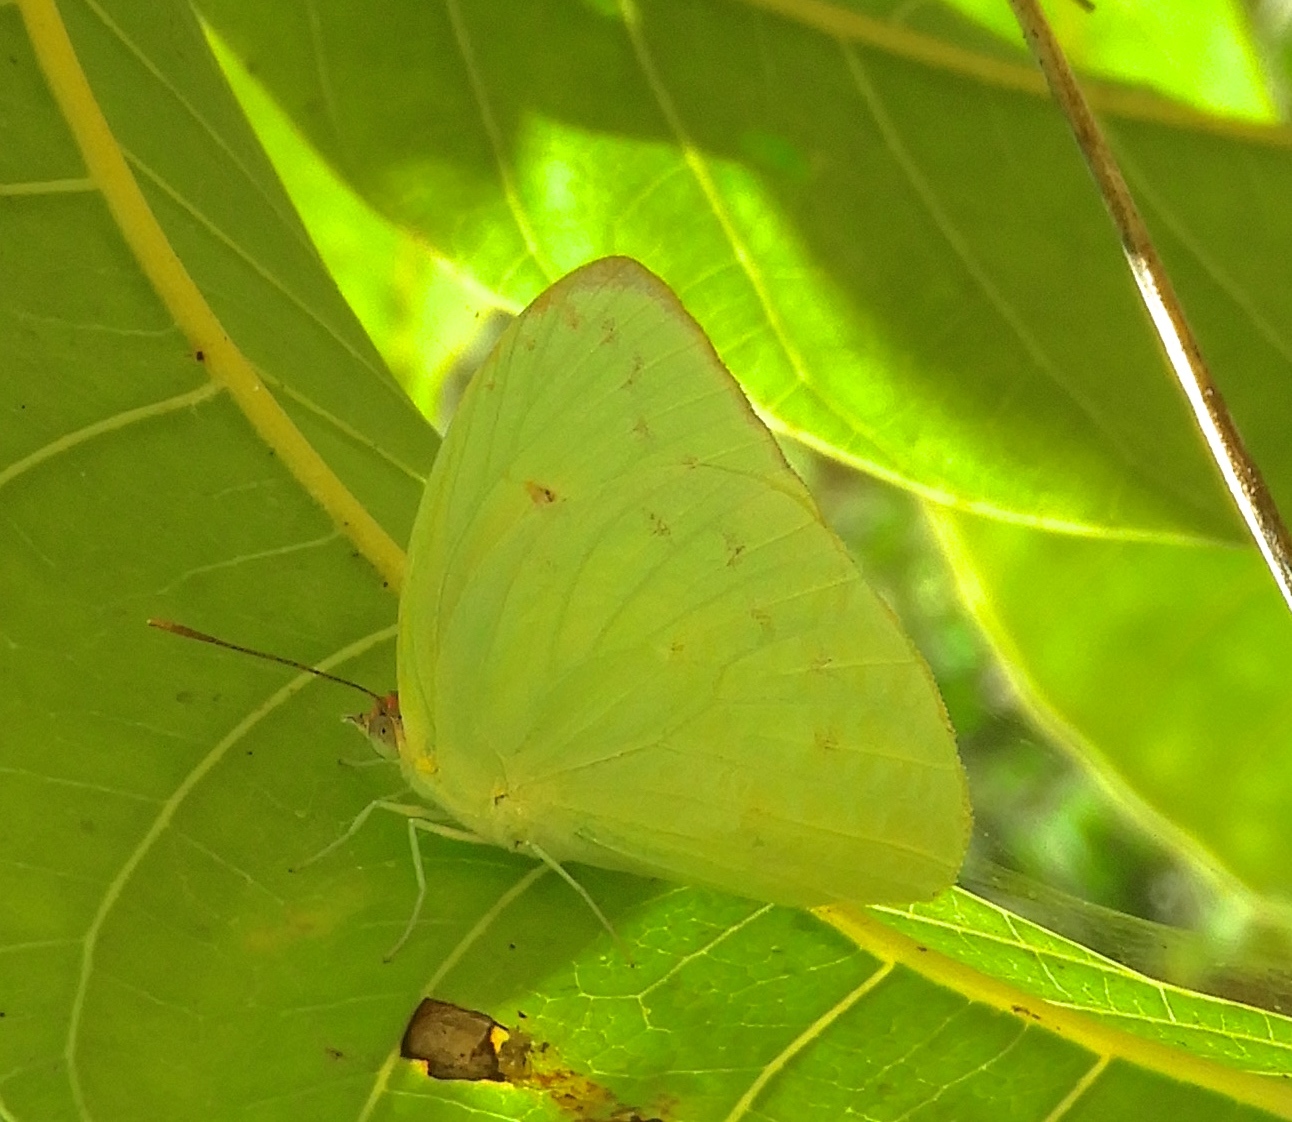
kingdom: Animalia
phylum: Arthropoda
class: Insecta
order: Lepidoptera
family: Pieridae
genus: Aphrissa
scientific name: Aphrissa statira
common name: Statira sulphur
